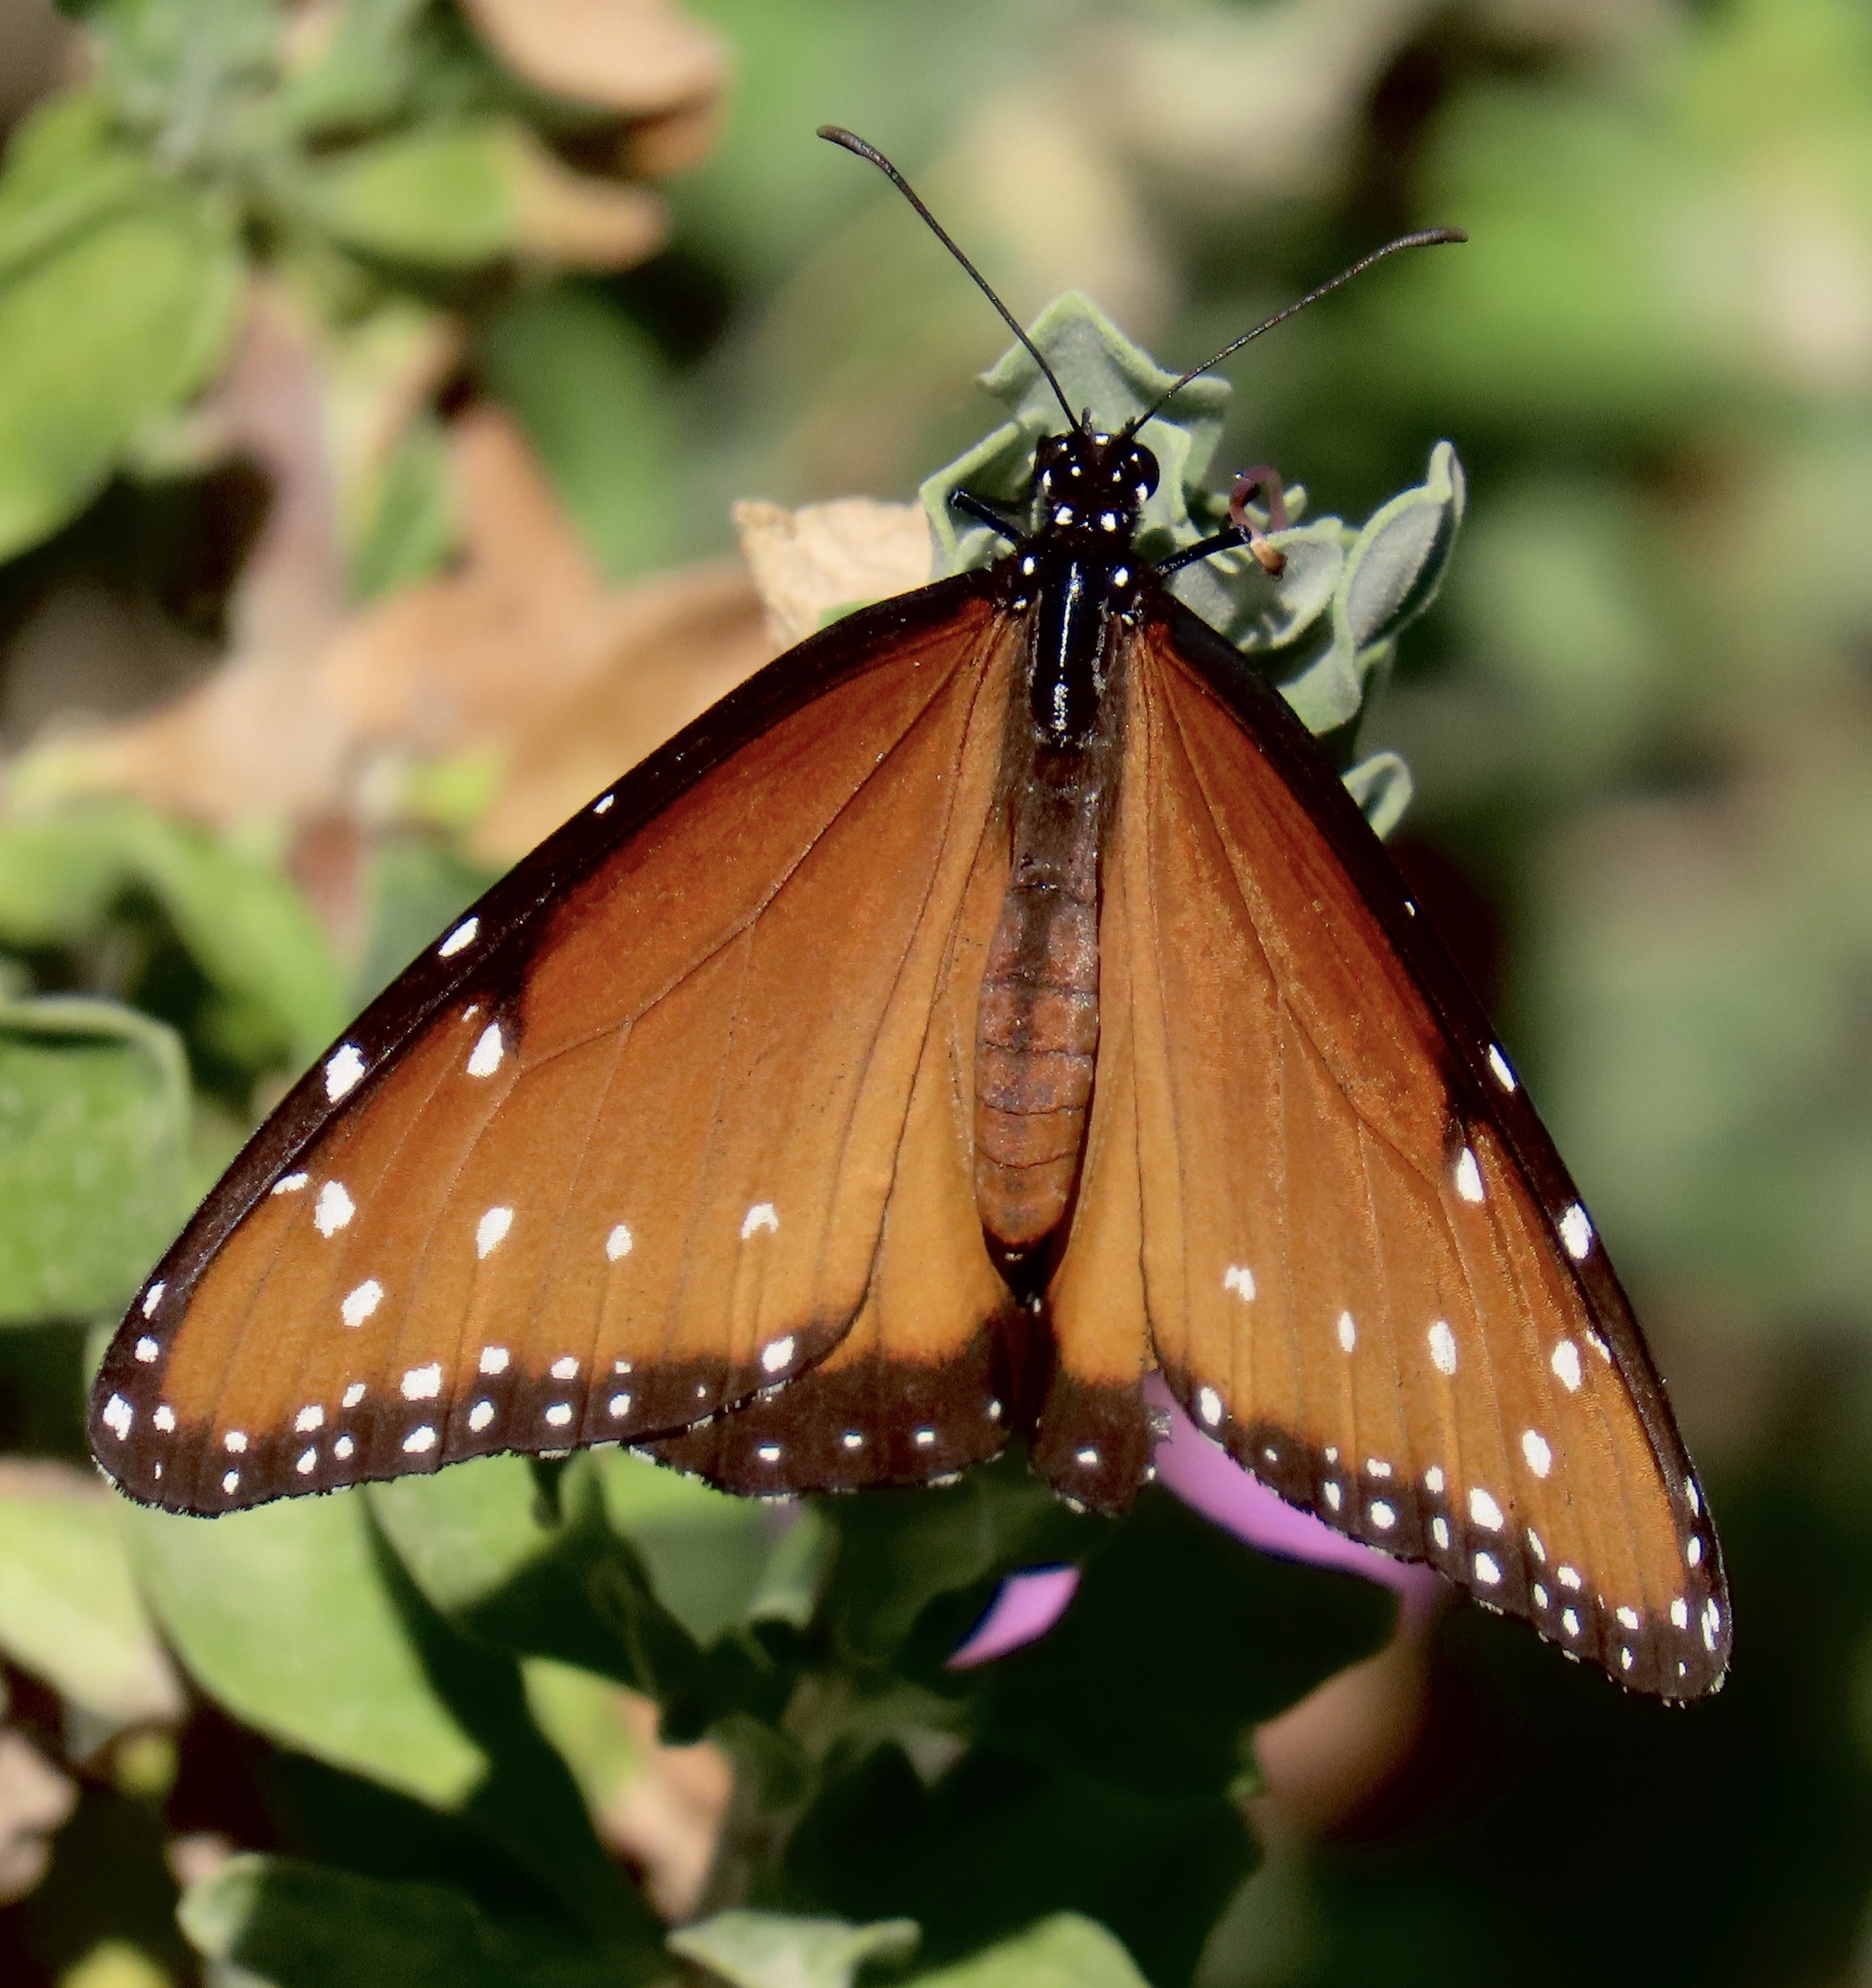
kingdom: Animalia
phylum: Arthropoda
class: Insecta
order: Lepidoptera
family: Nymphalidae
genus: Danaus
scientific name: Danaus gilippus
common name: Queen
